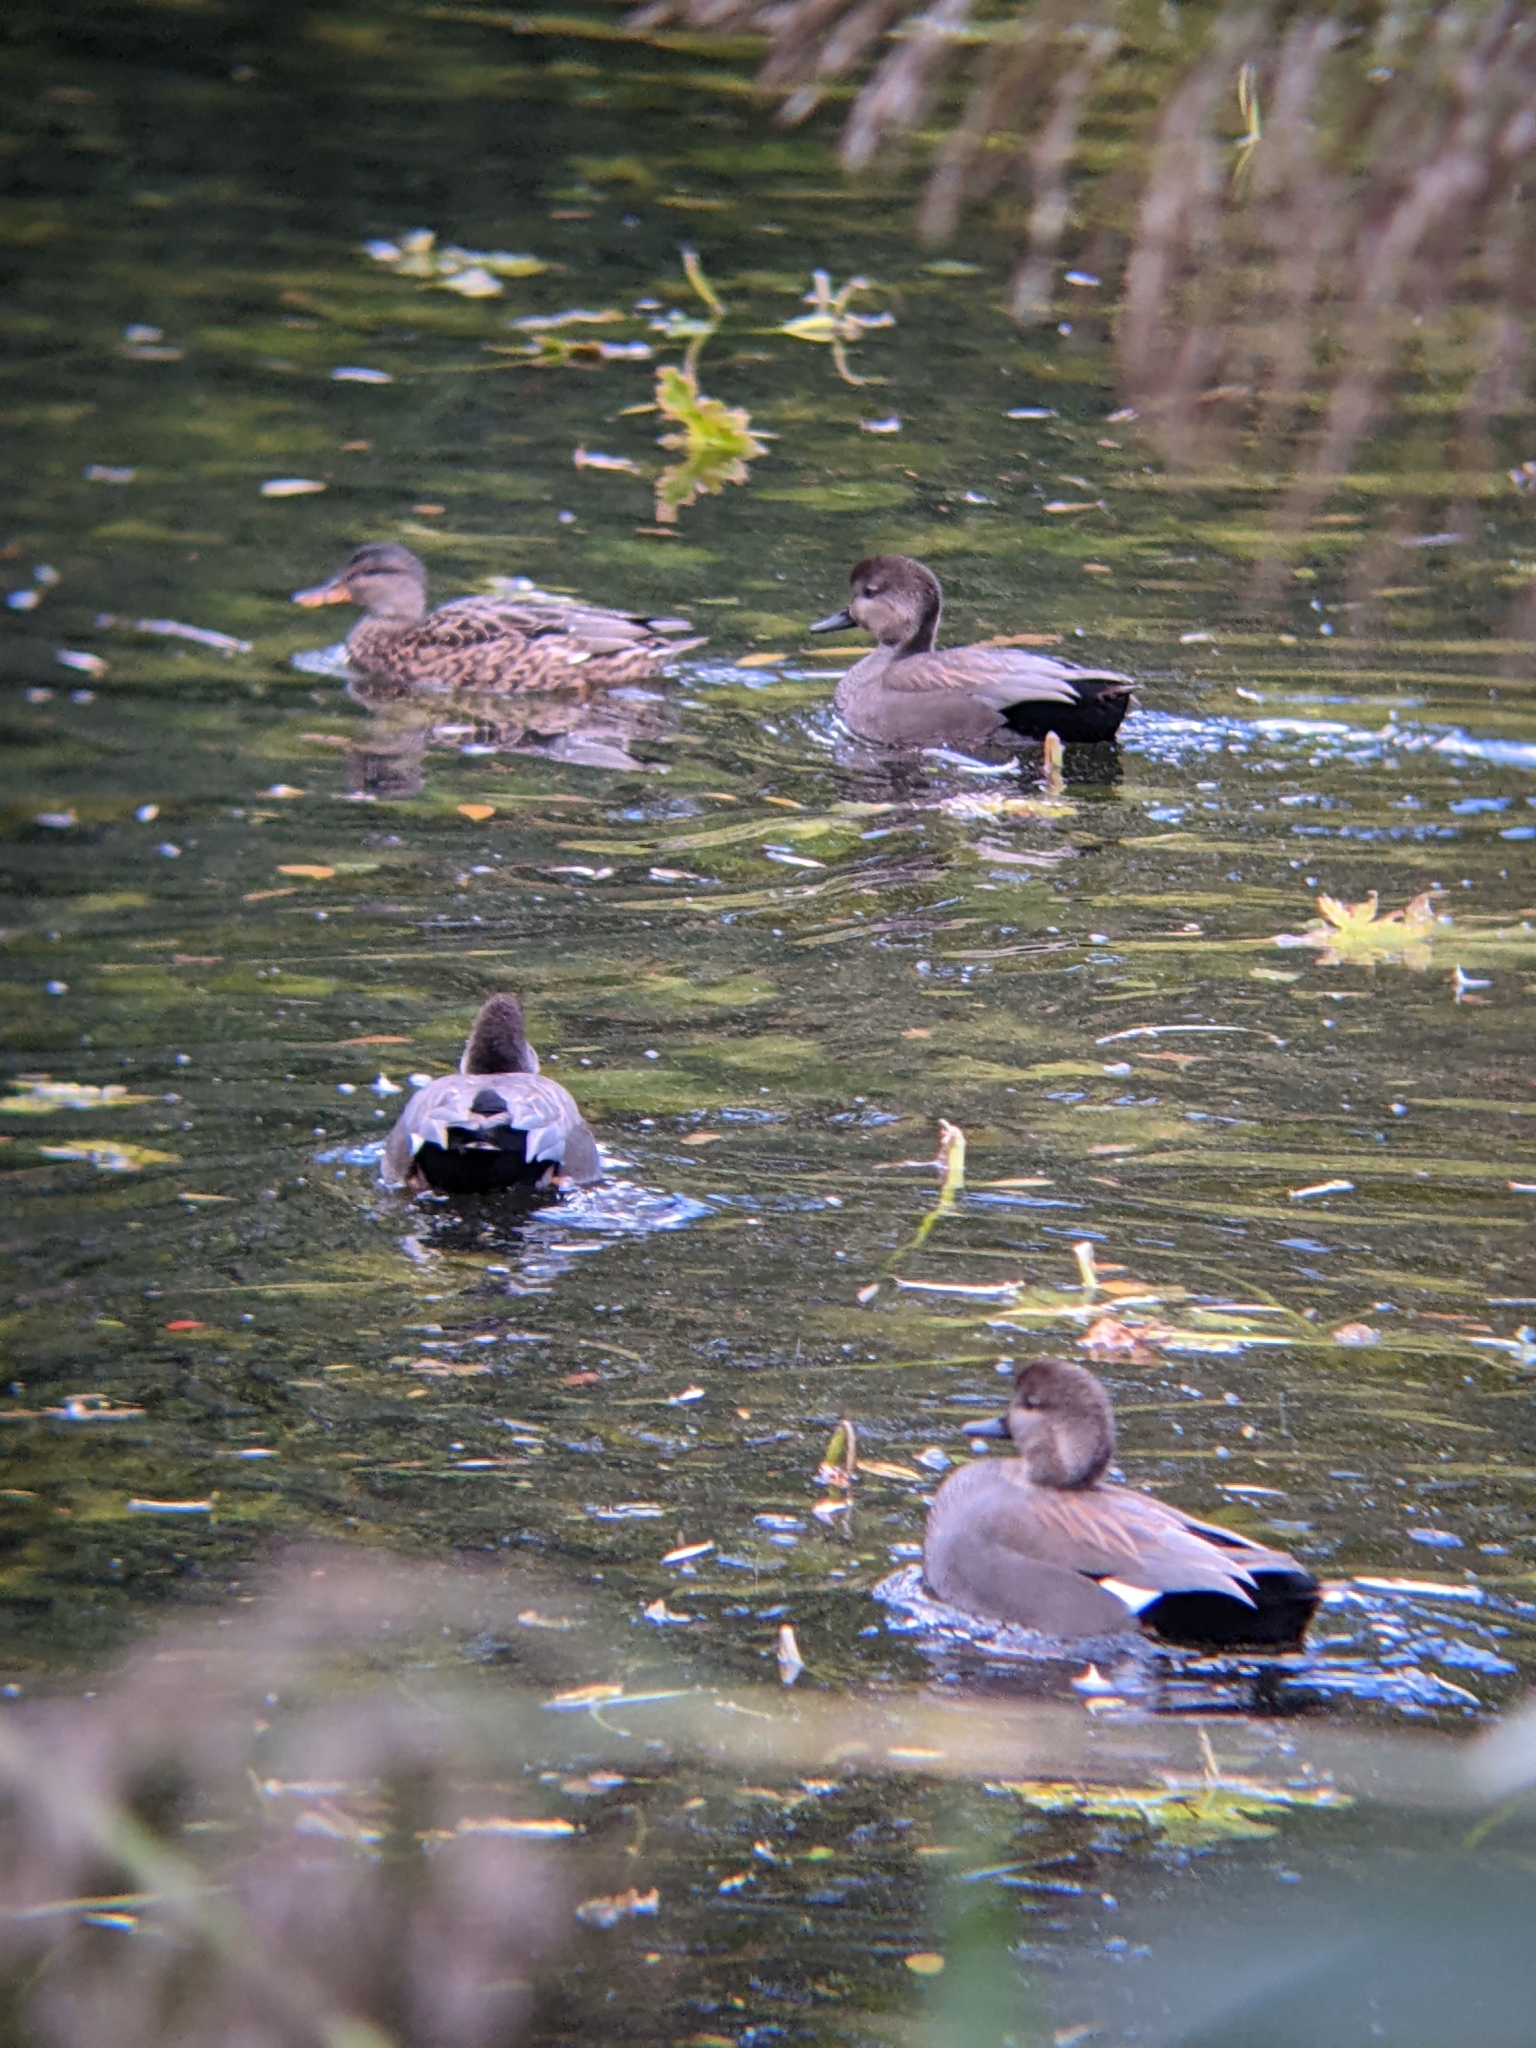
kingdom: Animalia
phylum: Chordata
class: Aves
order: Anseriformes
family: Anatidae
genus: Mareca
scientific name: Mareca strepera
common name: Gadwall
